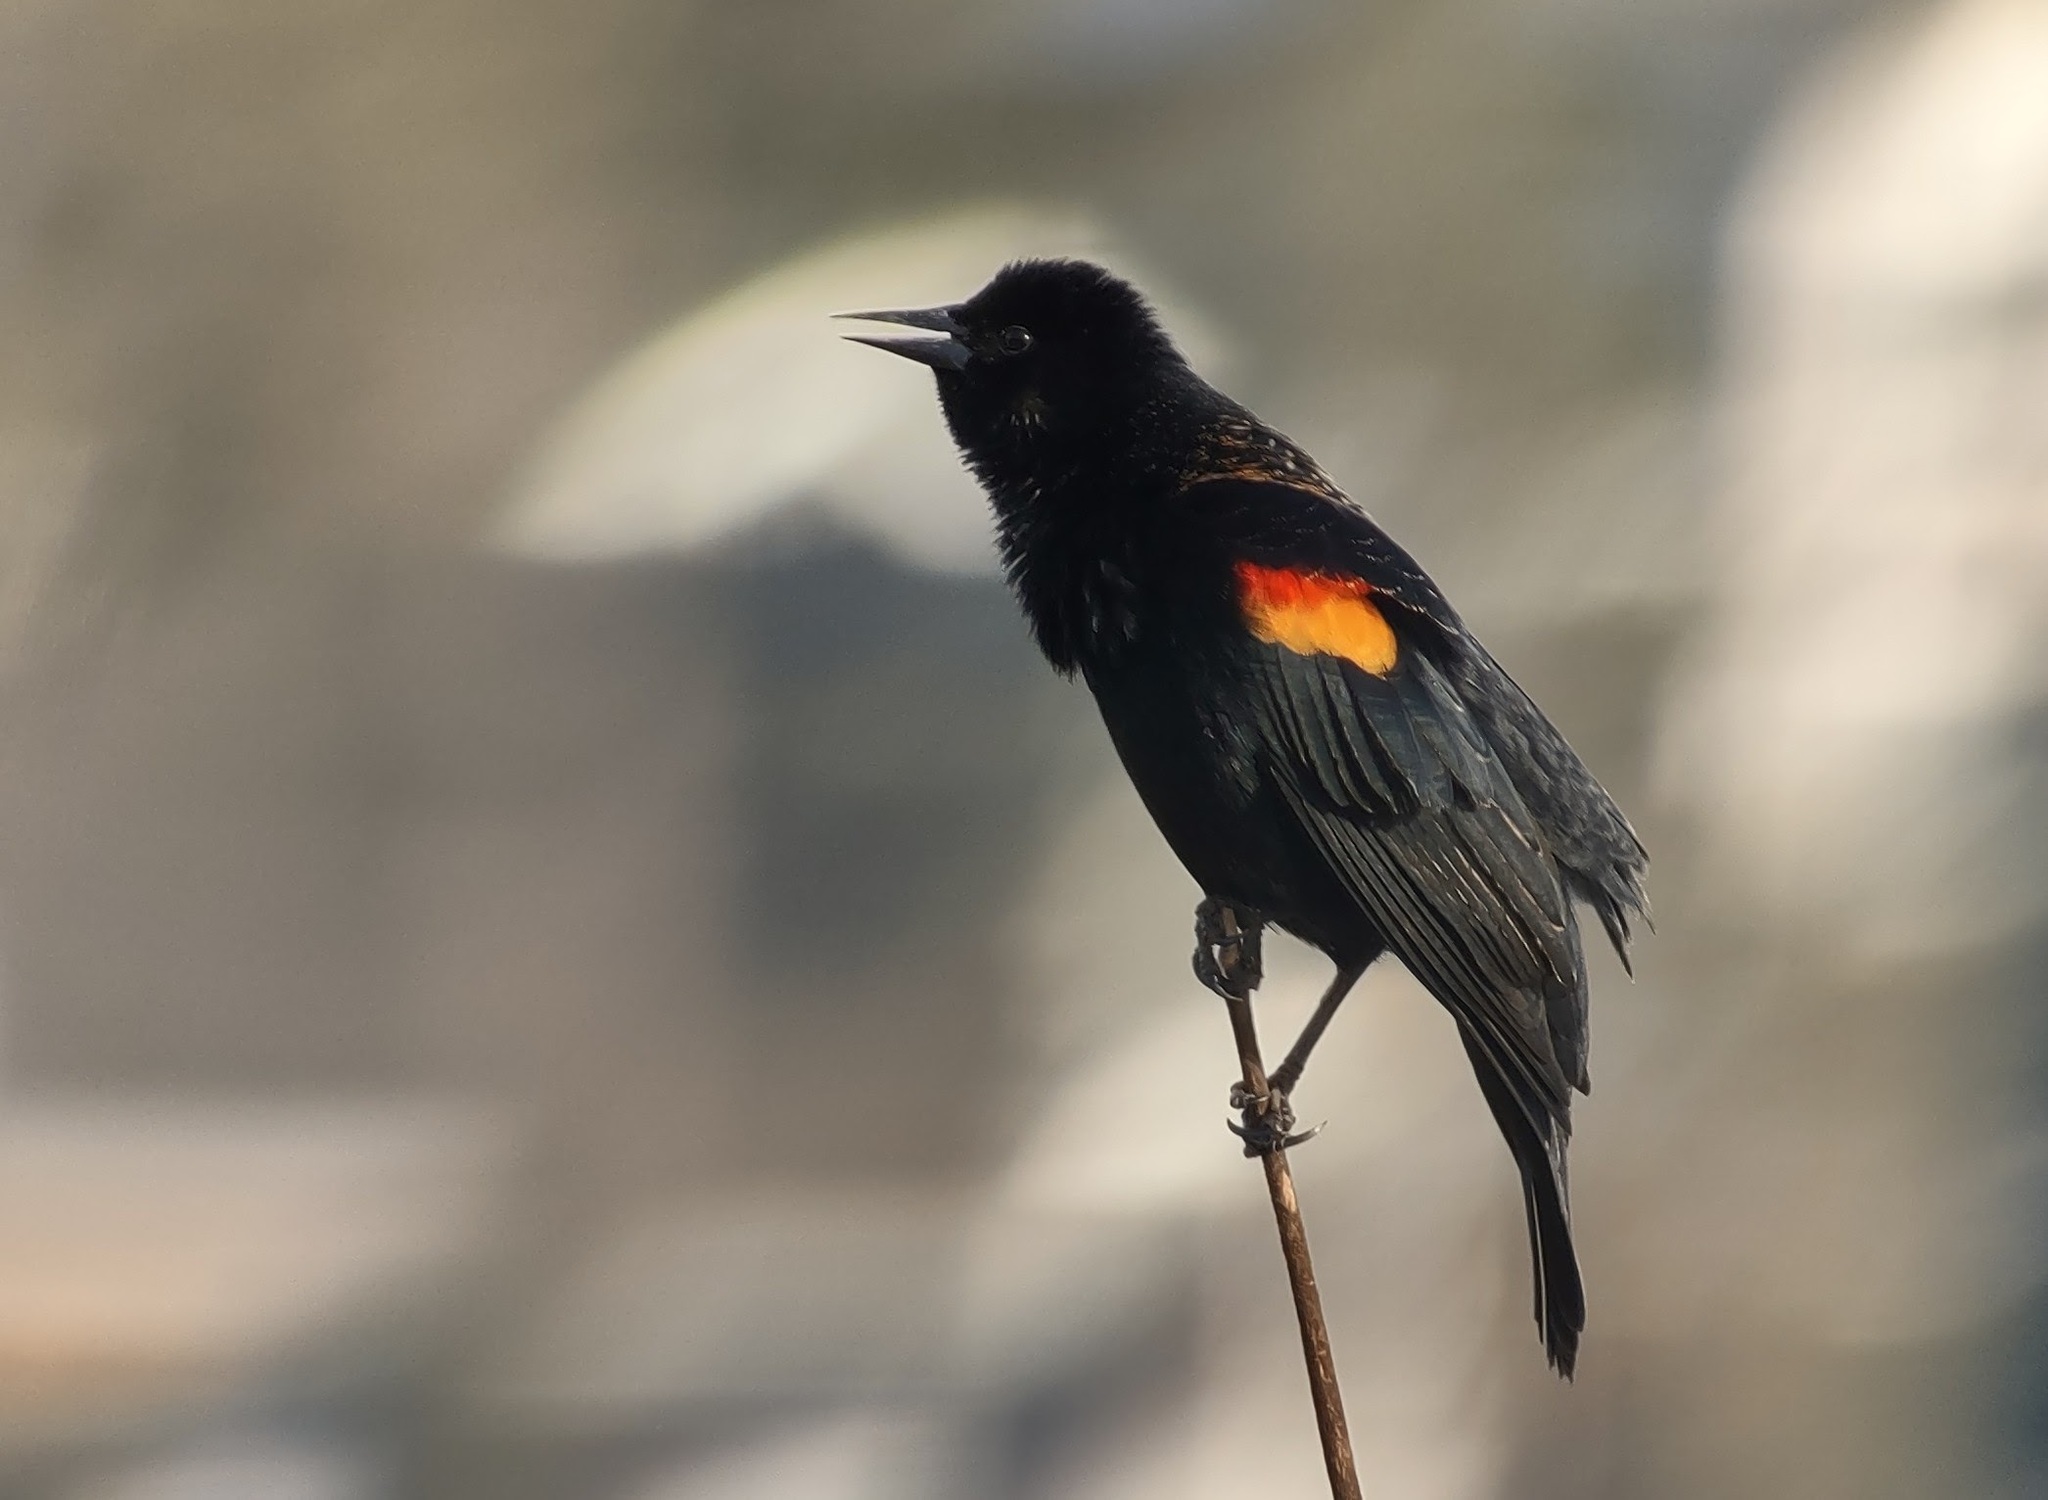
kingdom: Animalia
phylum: Chordata
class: Aves
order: Passeriformes
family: Icteridae
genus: Agelaius
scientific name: Agelaius phoeniceus
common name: Red-winged blackbird
